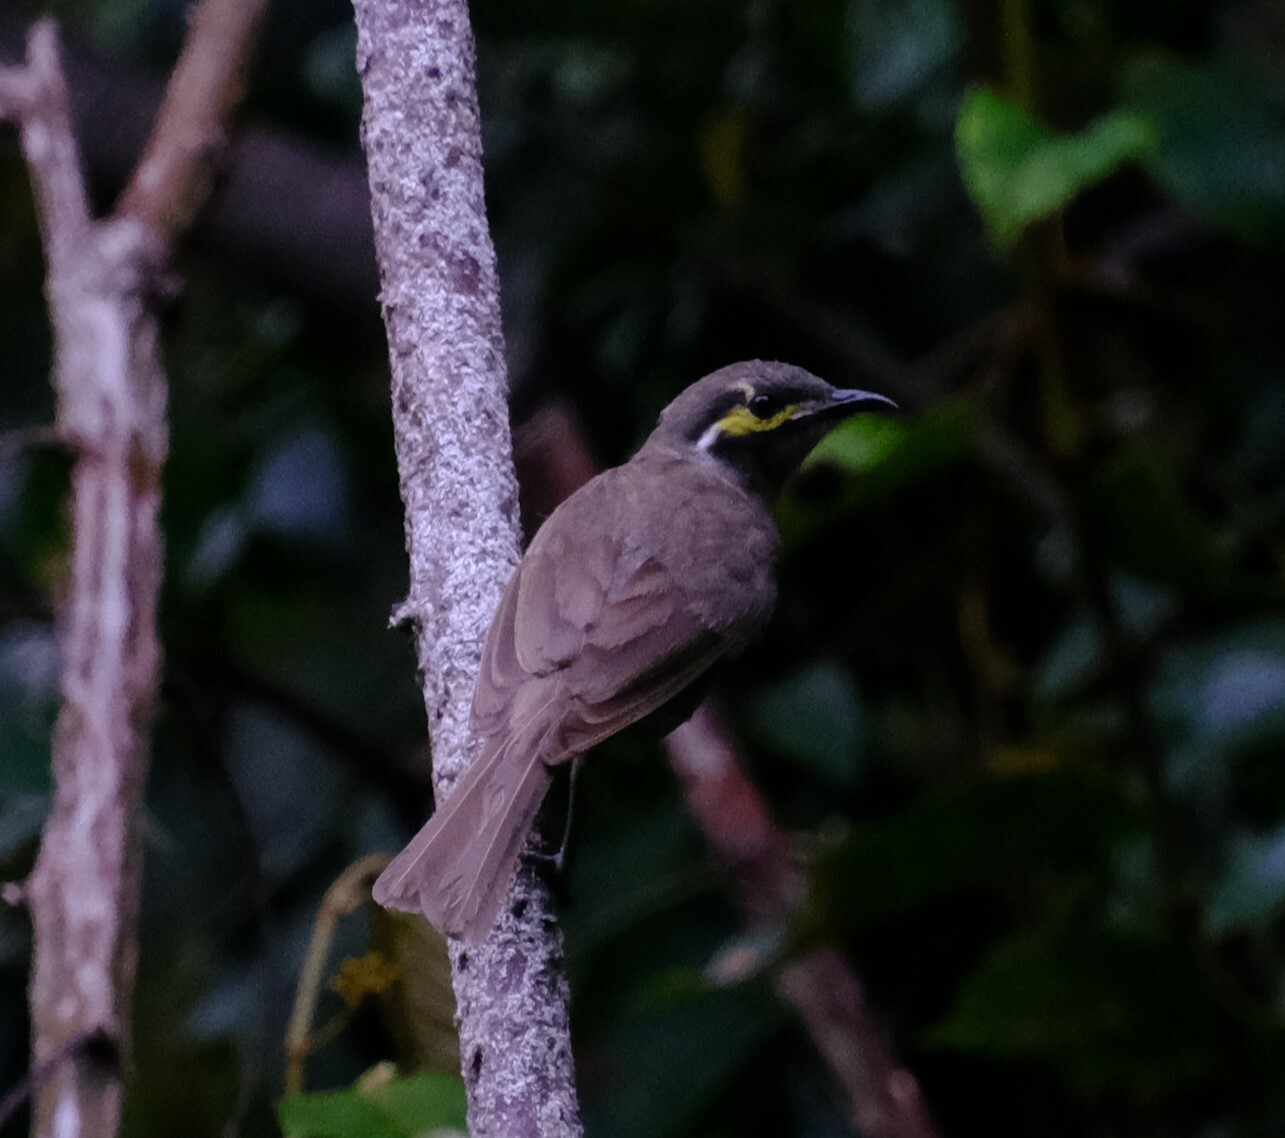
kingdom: Animalia
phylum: Chordata
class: Aves
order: Passeriformes
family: Meliphagidae
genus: Caligavis
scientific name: Caligavis chrysops
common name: Yellow-faced honeyeater
